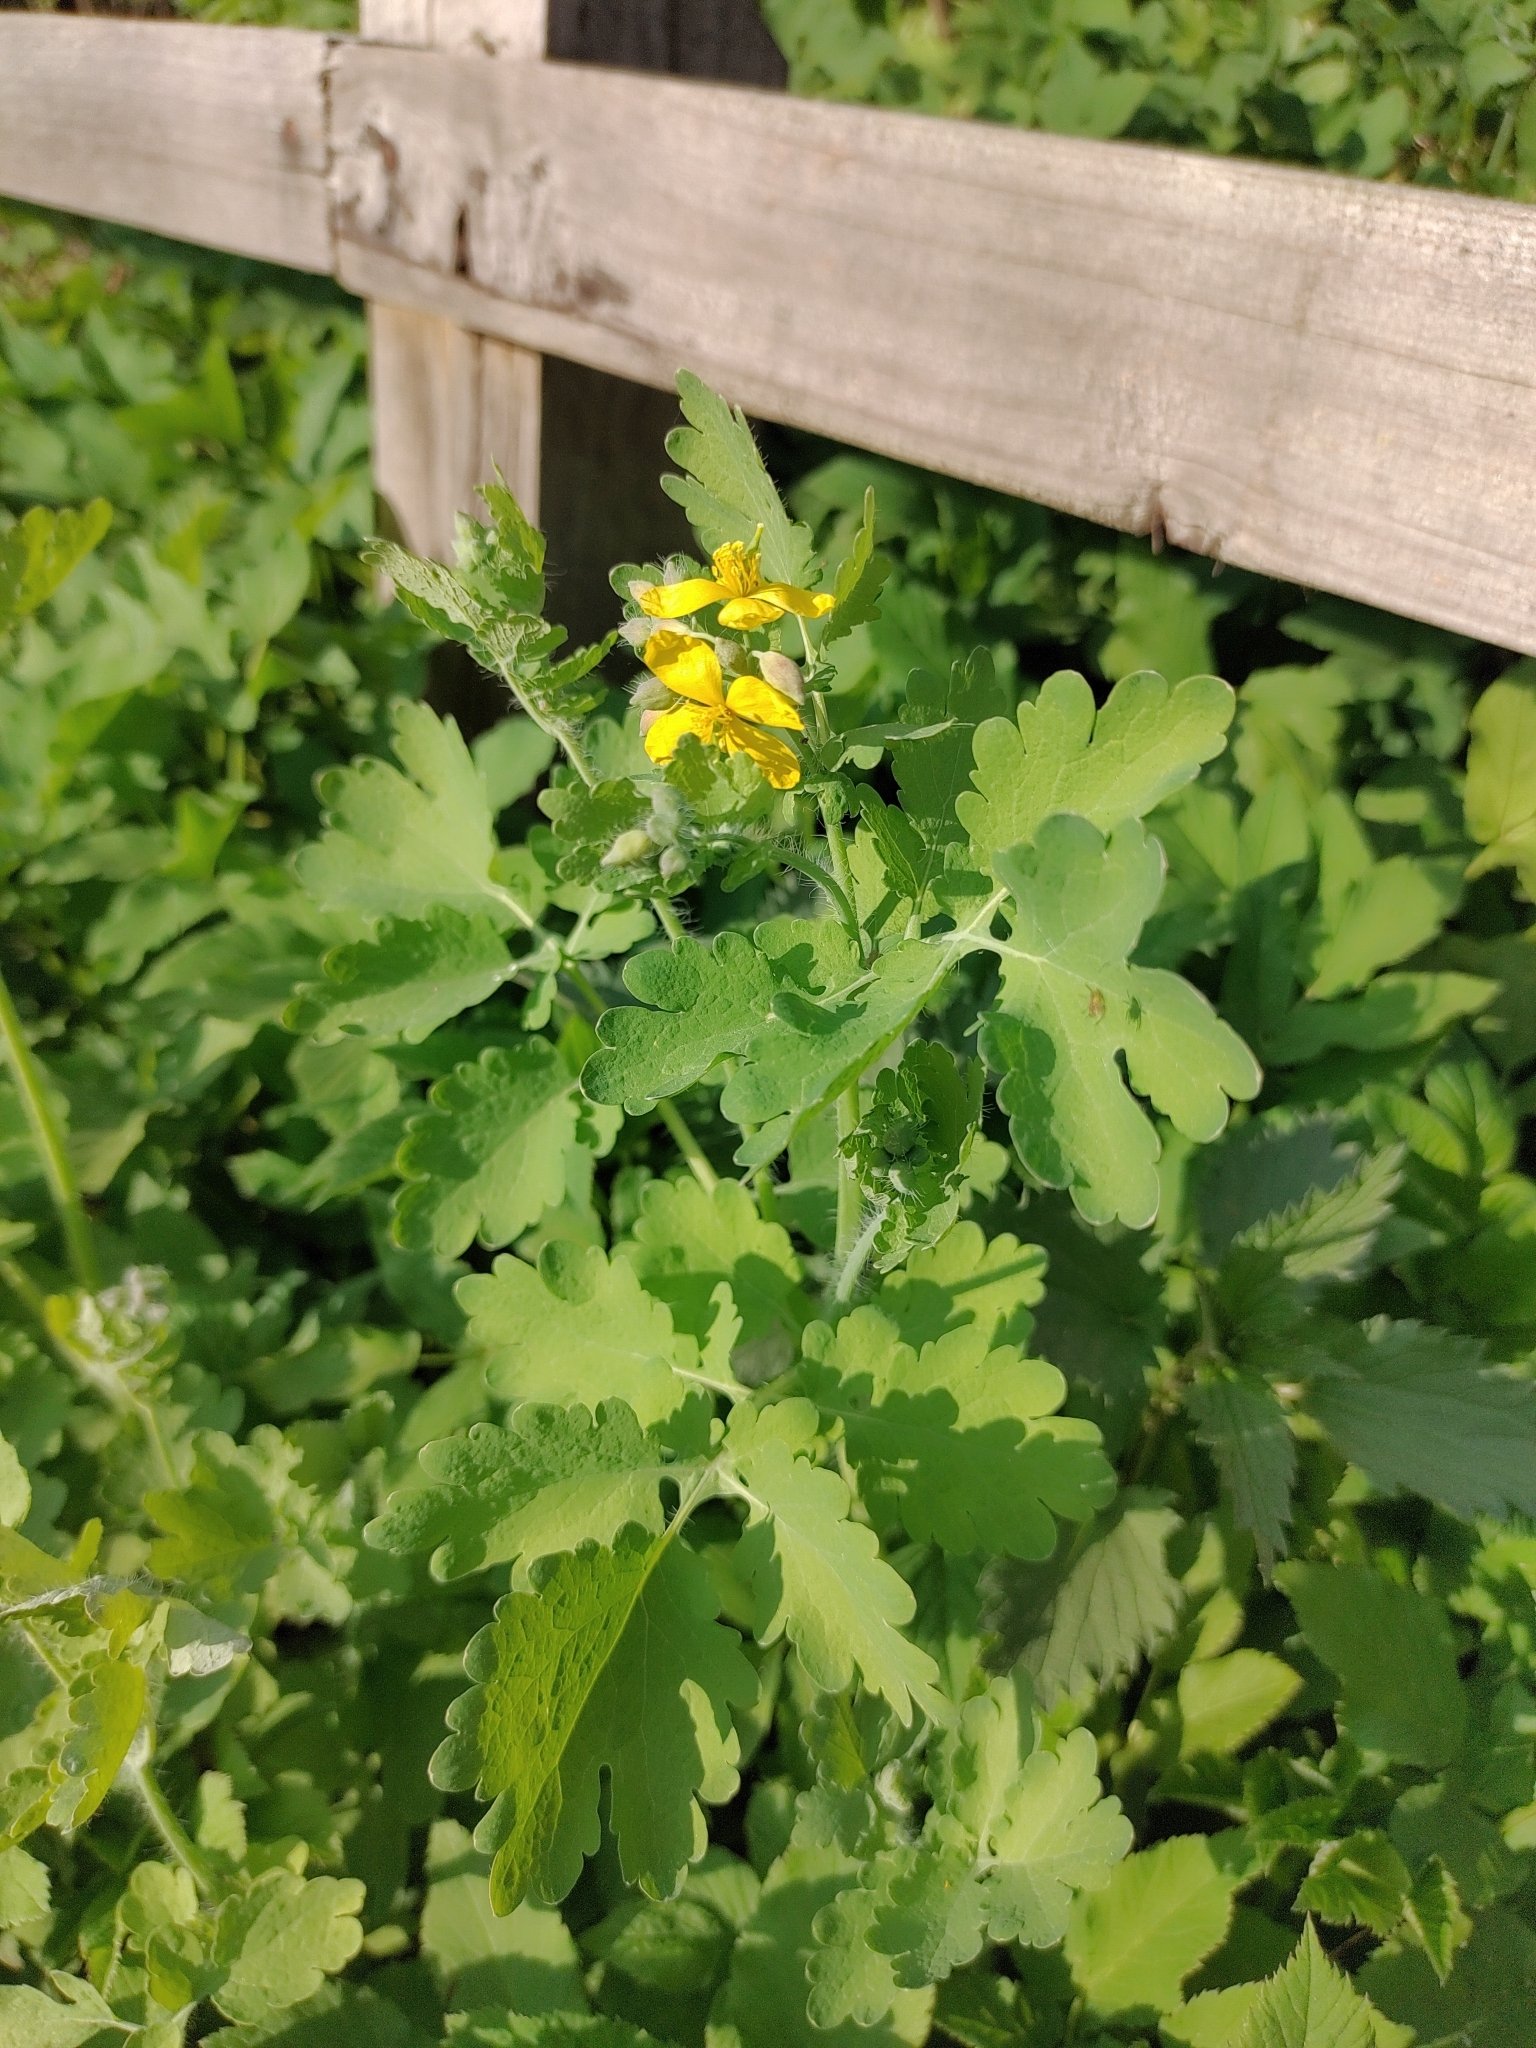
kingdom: Plantae
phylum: Tracheophyta
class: Magnoliopsida
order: Ranunculales
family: Papaveraceae
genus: Chelidonium
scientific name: Chelidonium majus
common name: Greater celandine
